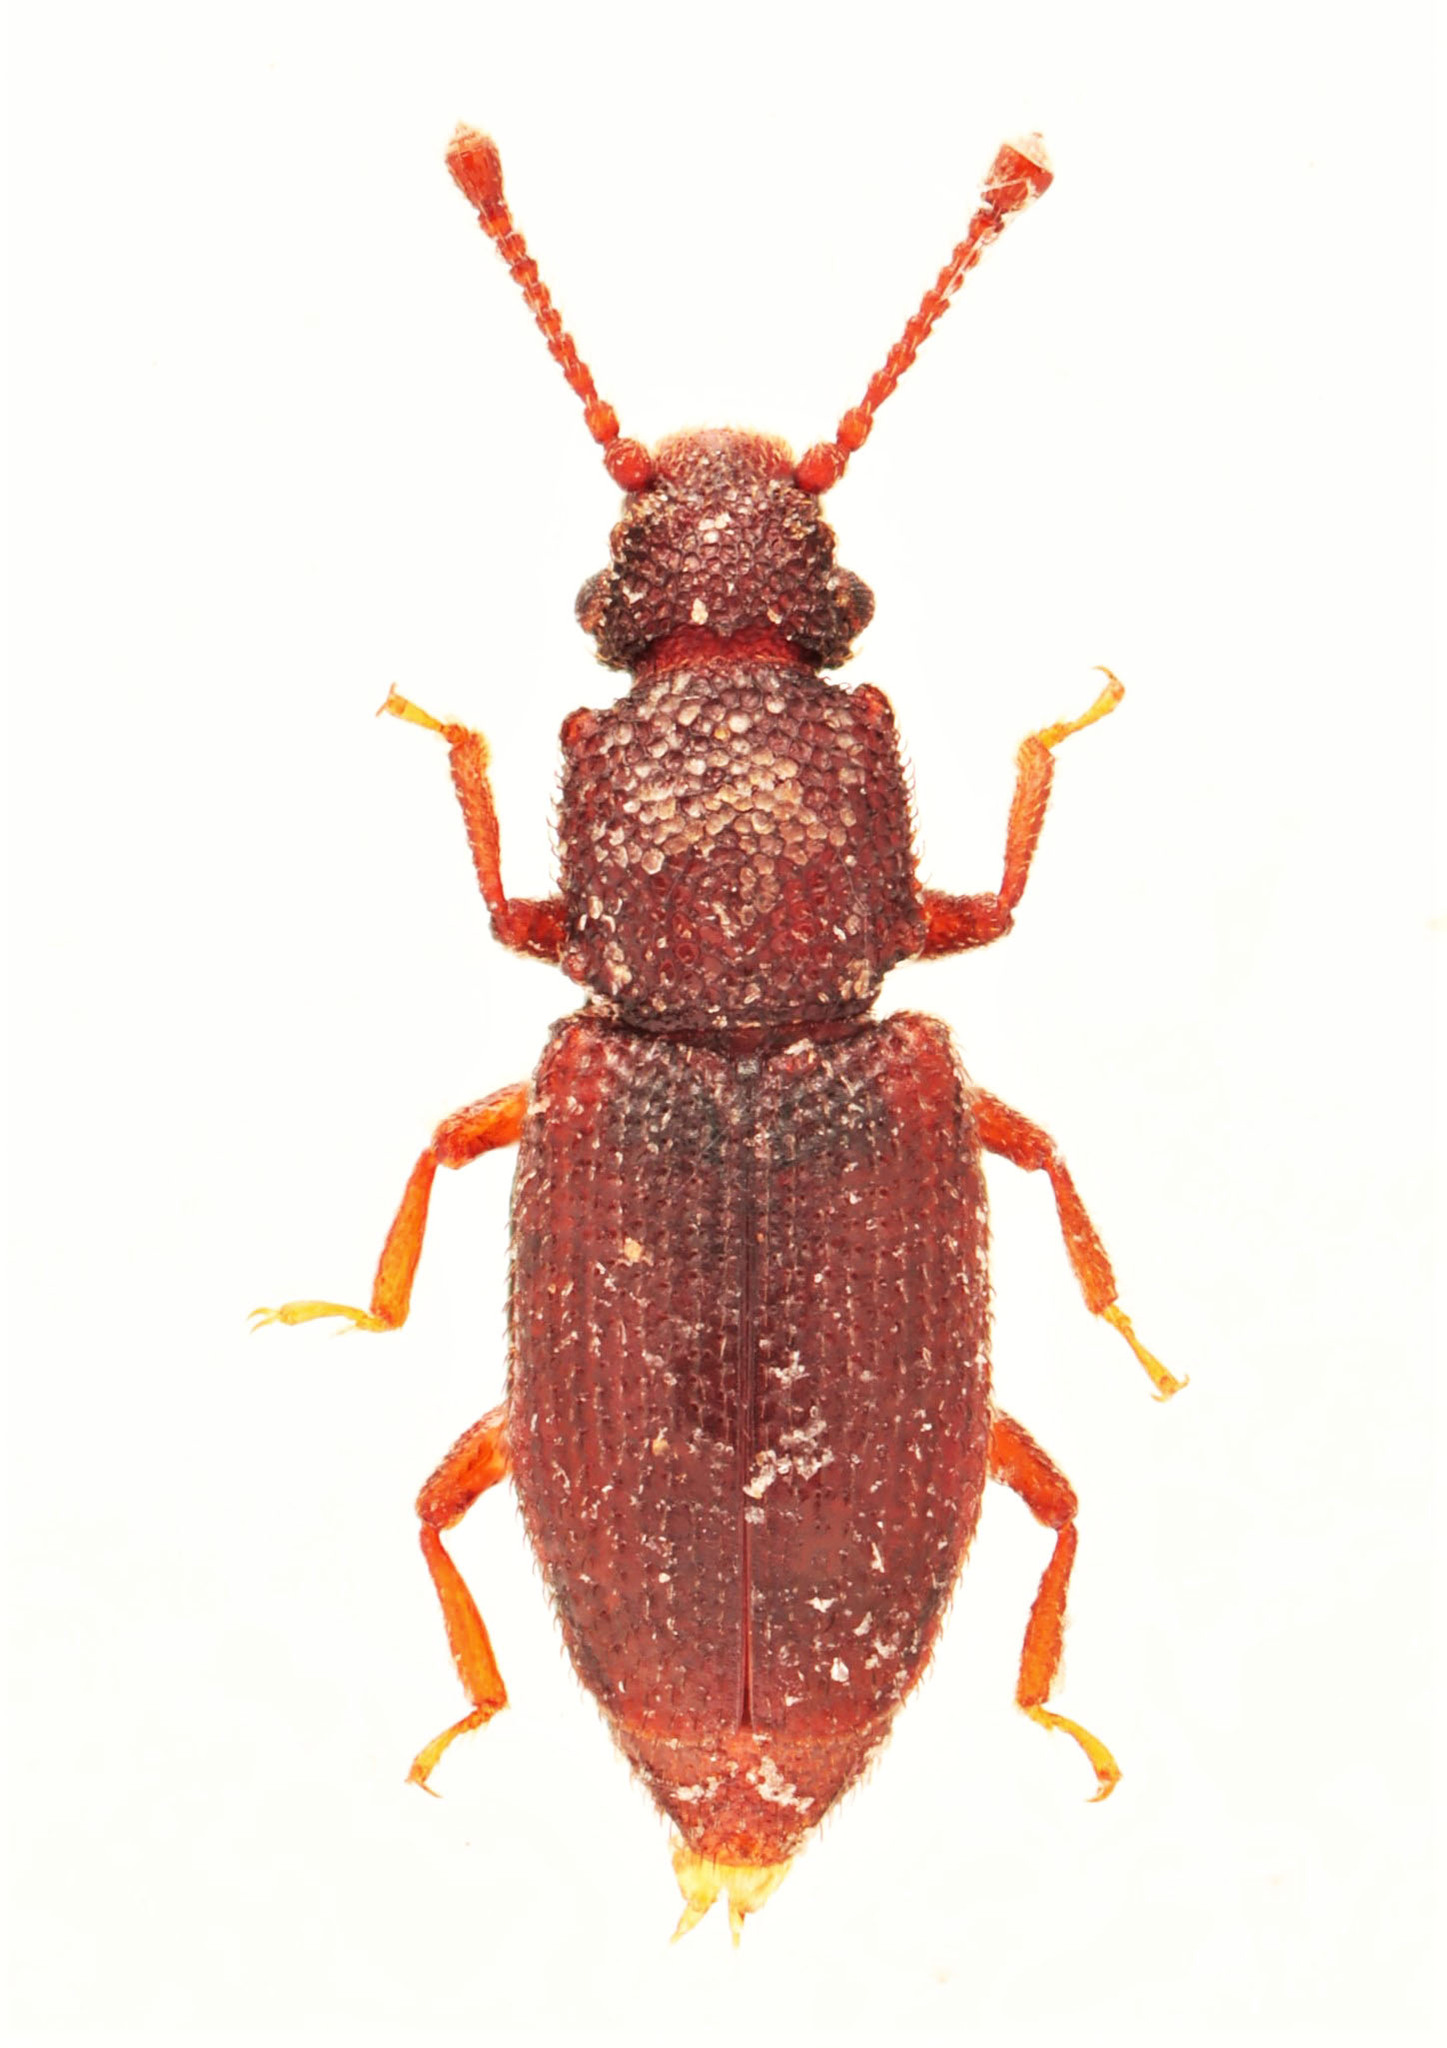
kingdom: Animalia
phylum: Arthropoda
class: Insecta
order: Coleoptera
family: Monotomidae
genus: Monotoma
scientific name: Monotoma americana
